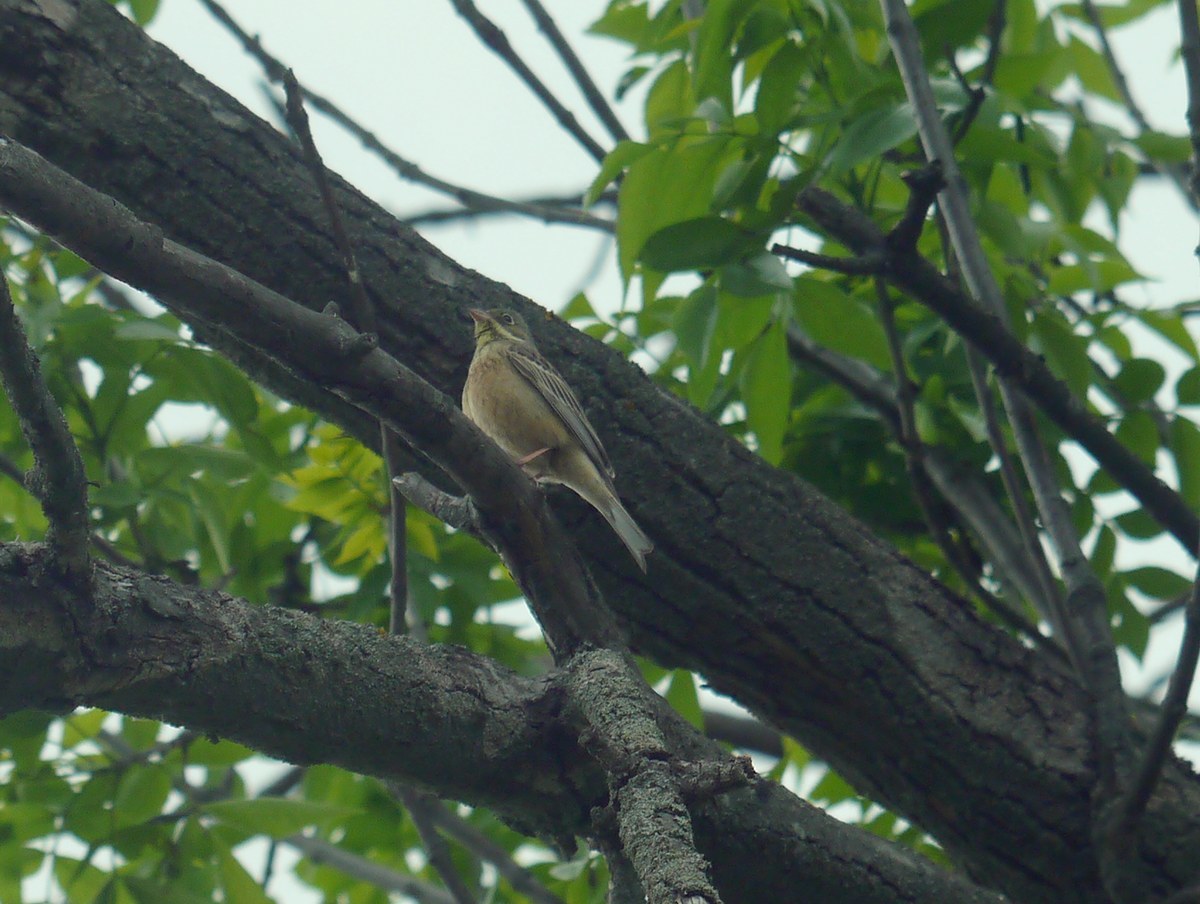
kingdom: Animalia
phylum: Chordata
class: Aves
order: Passeriformes
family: Emberizidae
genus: Emberiza
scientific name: Emberiza hortulana
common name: Ortolan bunting
